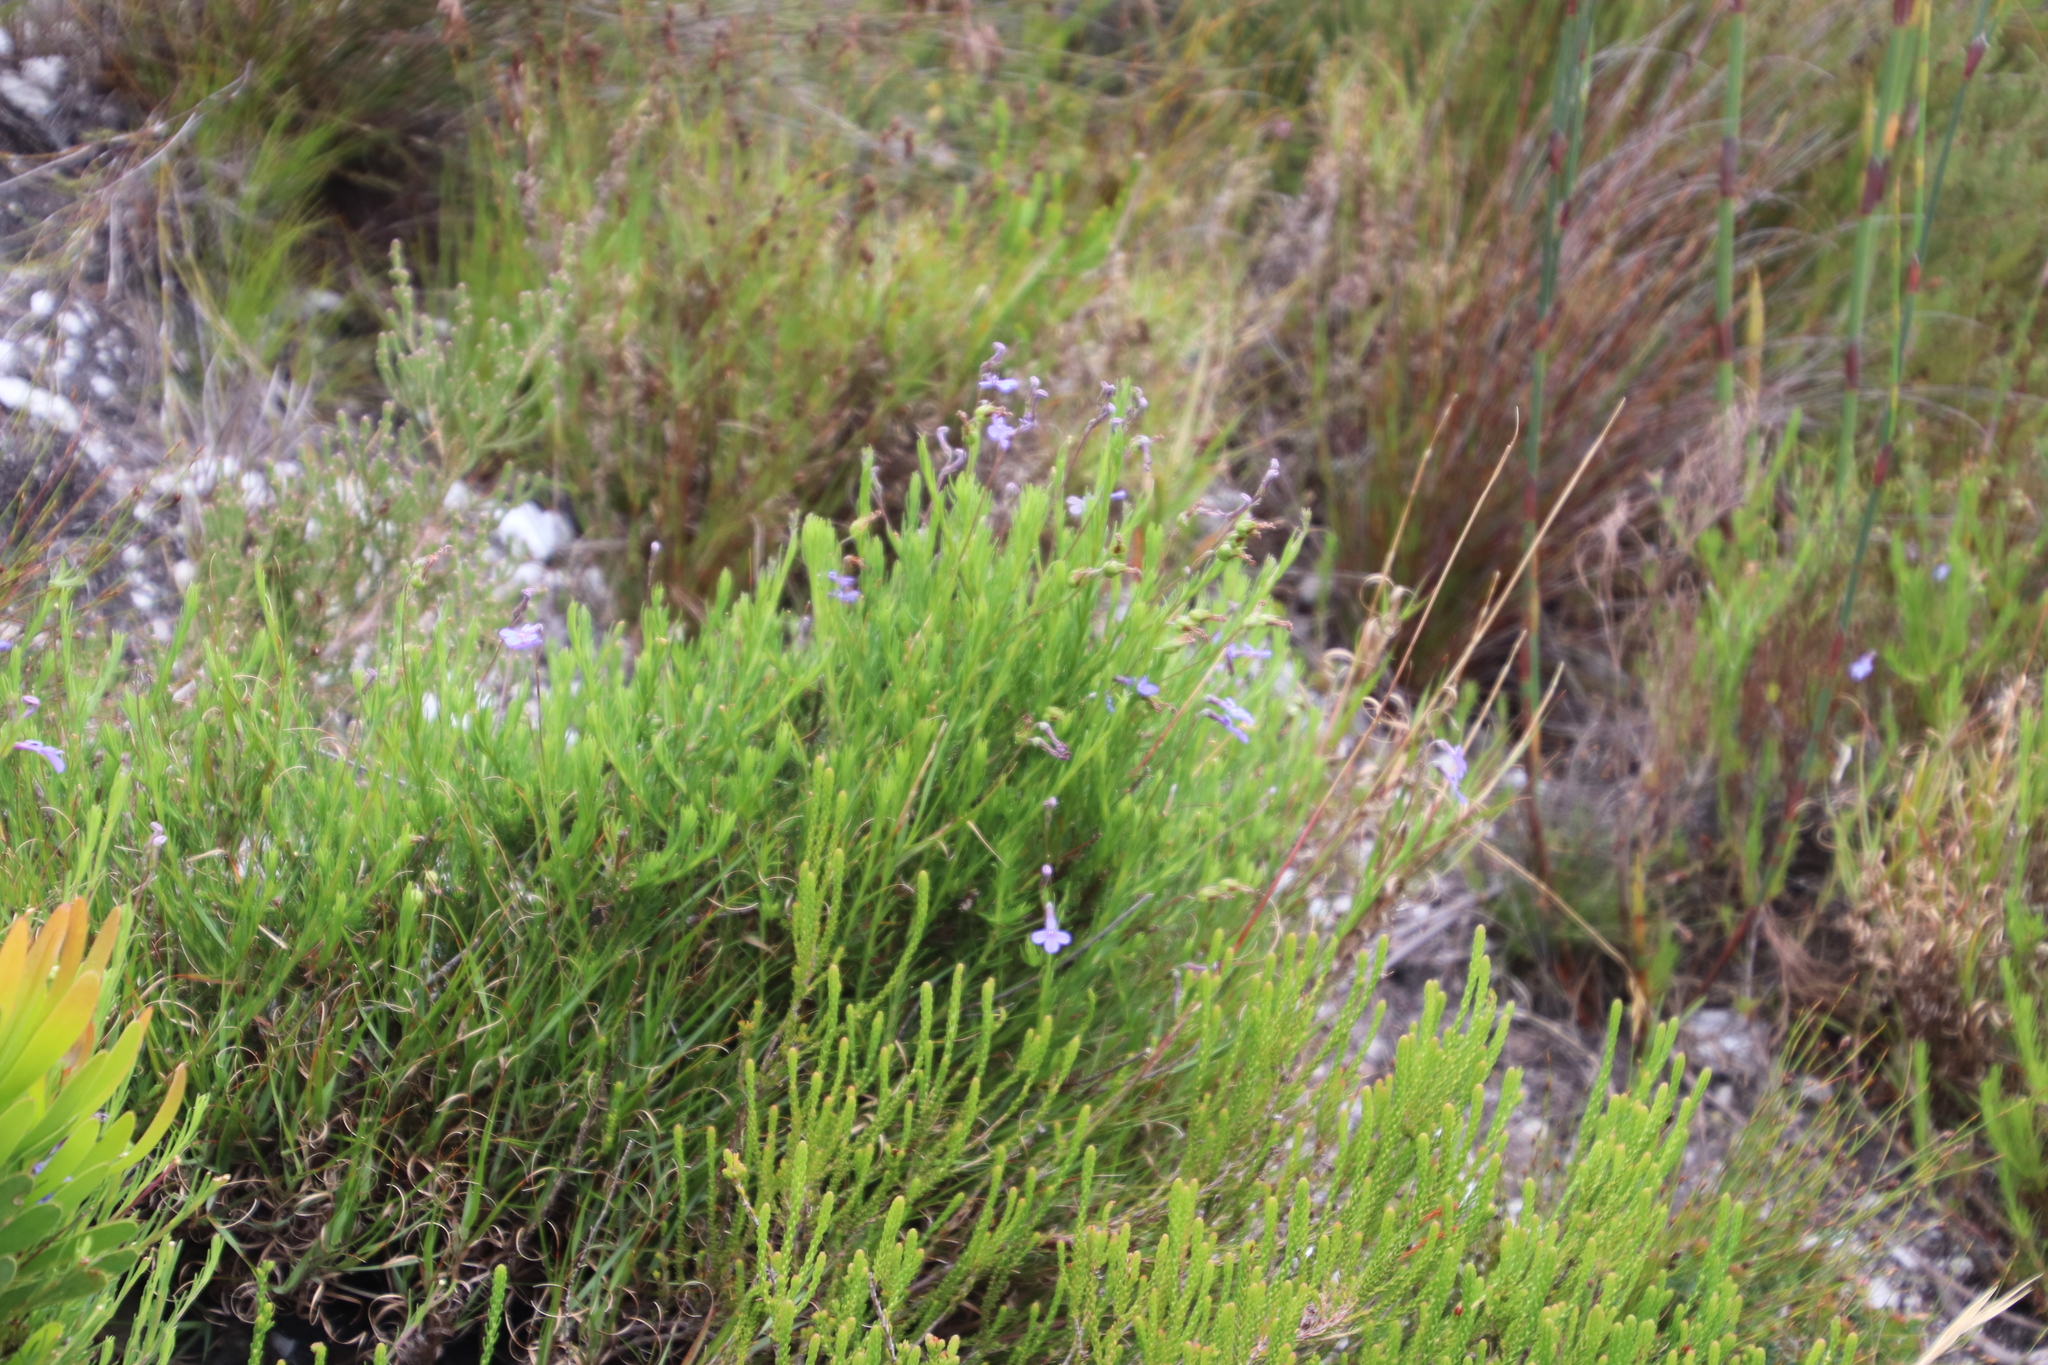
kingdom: Plantae
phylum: Tracheophyta
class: Magnoliopsida
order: Asterales
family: Campanulaceae
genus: Lobelia
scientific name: Lobelia pinifolia
